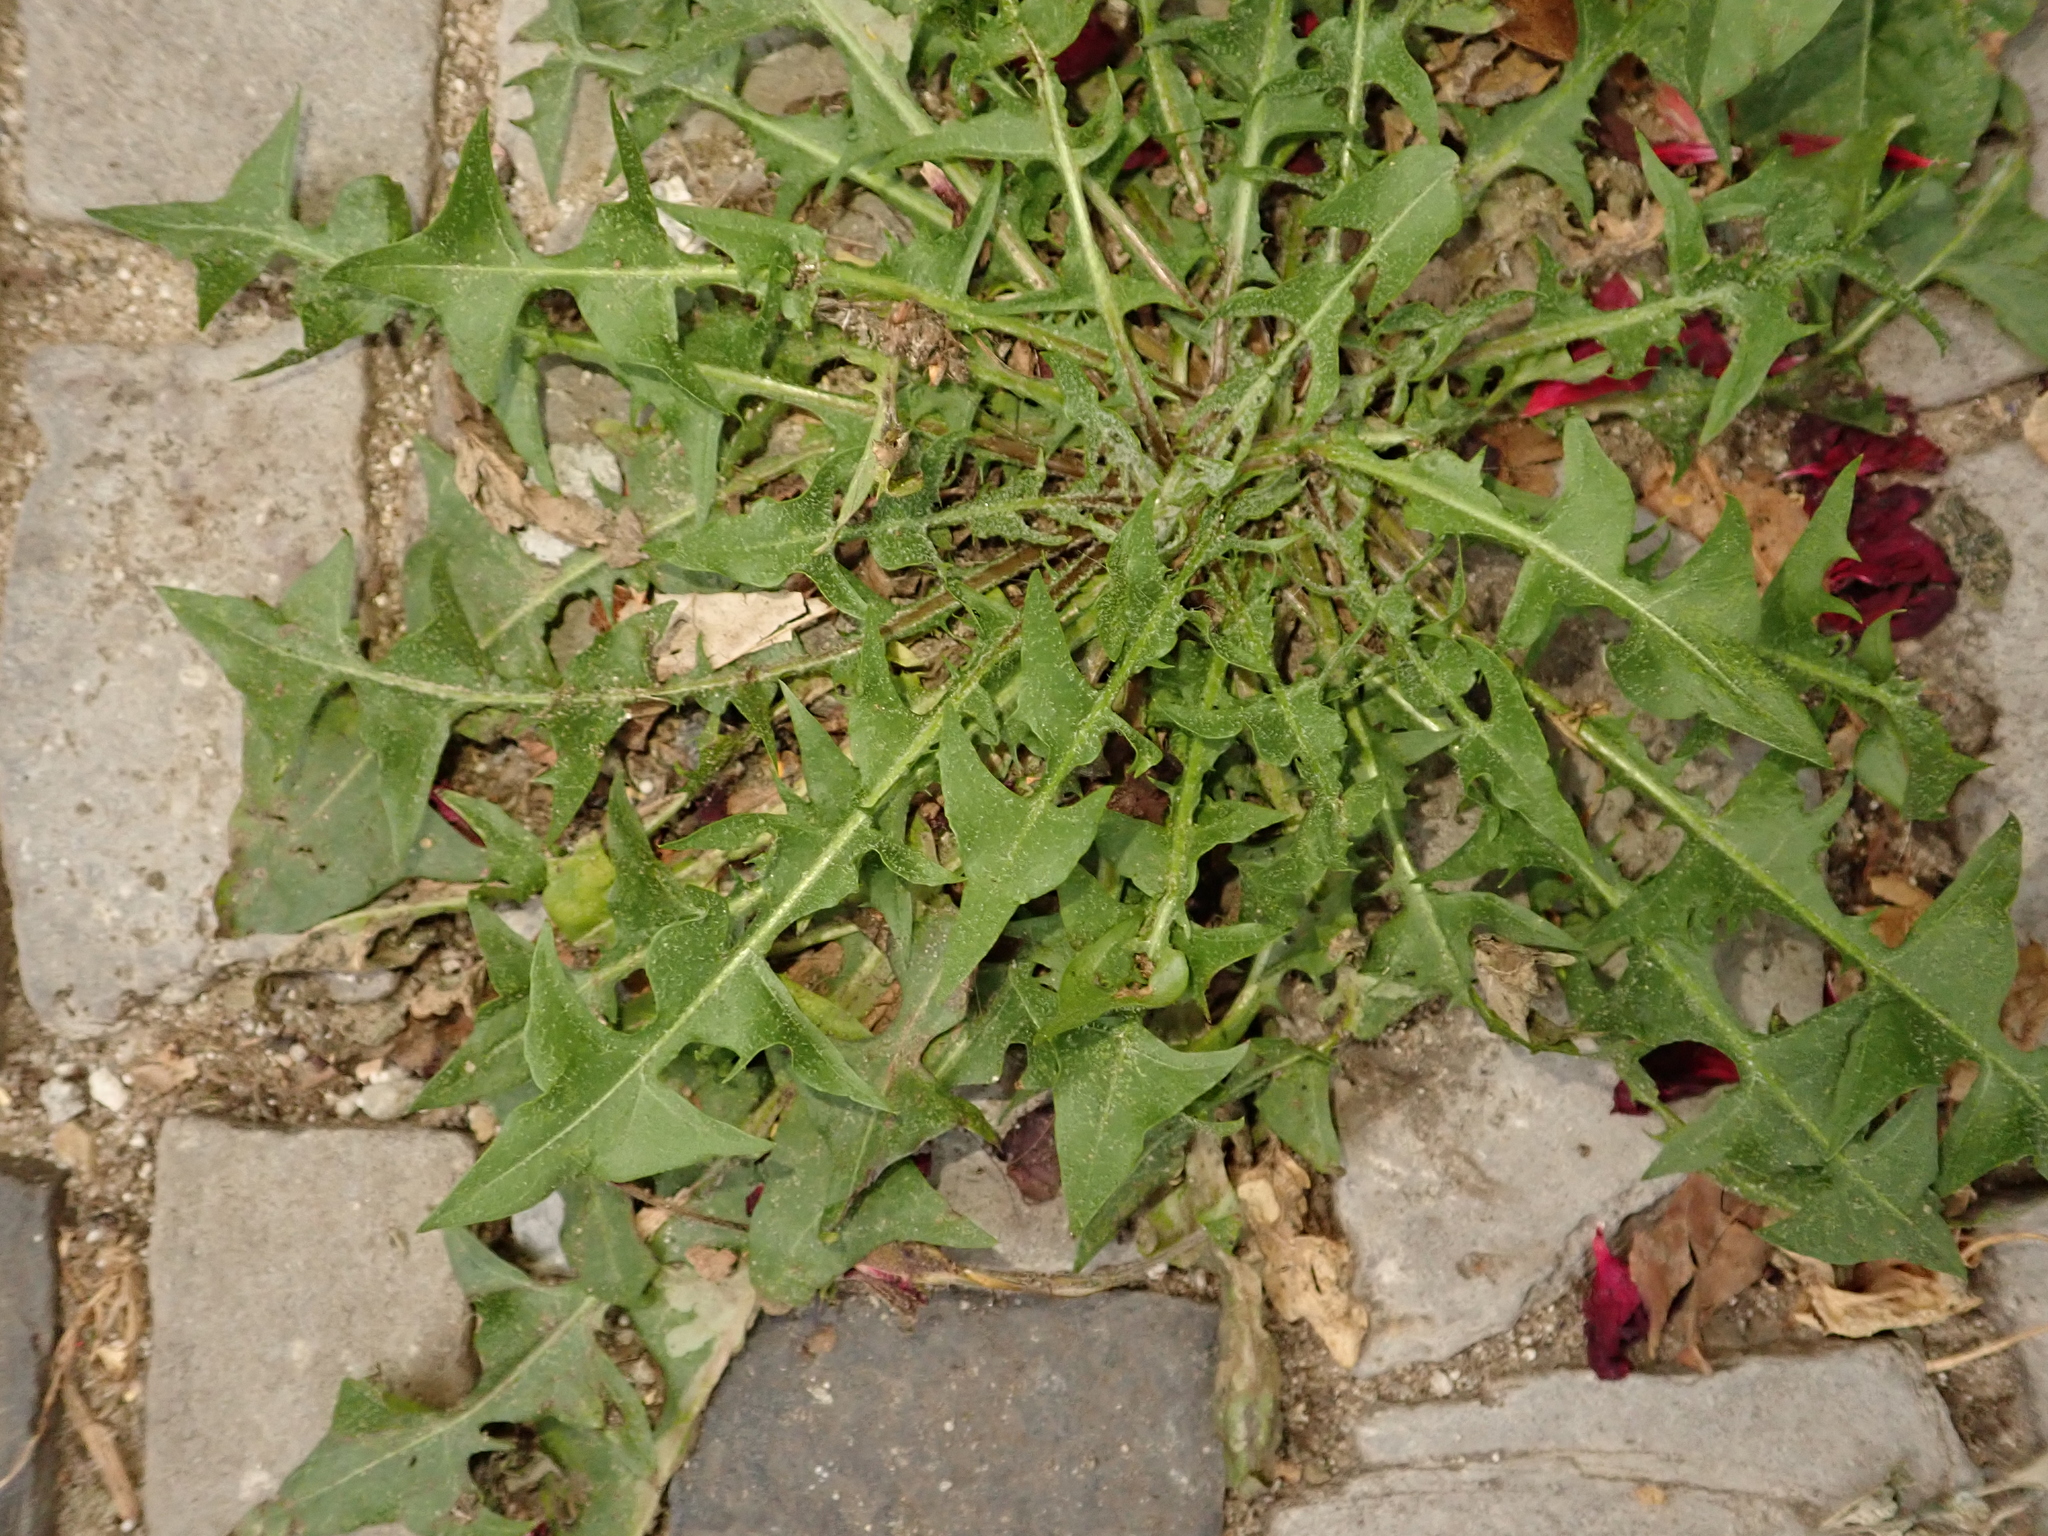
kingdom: Plantae
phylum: Tracheophyta
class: Magnoliopsida
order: Asterales
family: Asteraceae
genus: Taraxacum
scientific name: Taraxacum officinale
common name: Common dandelion
